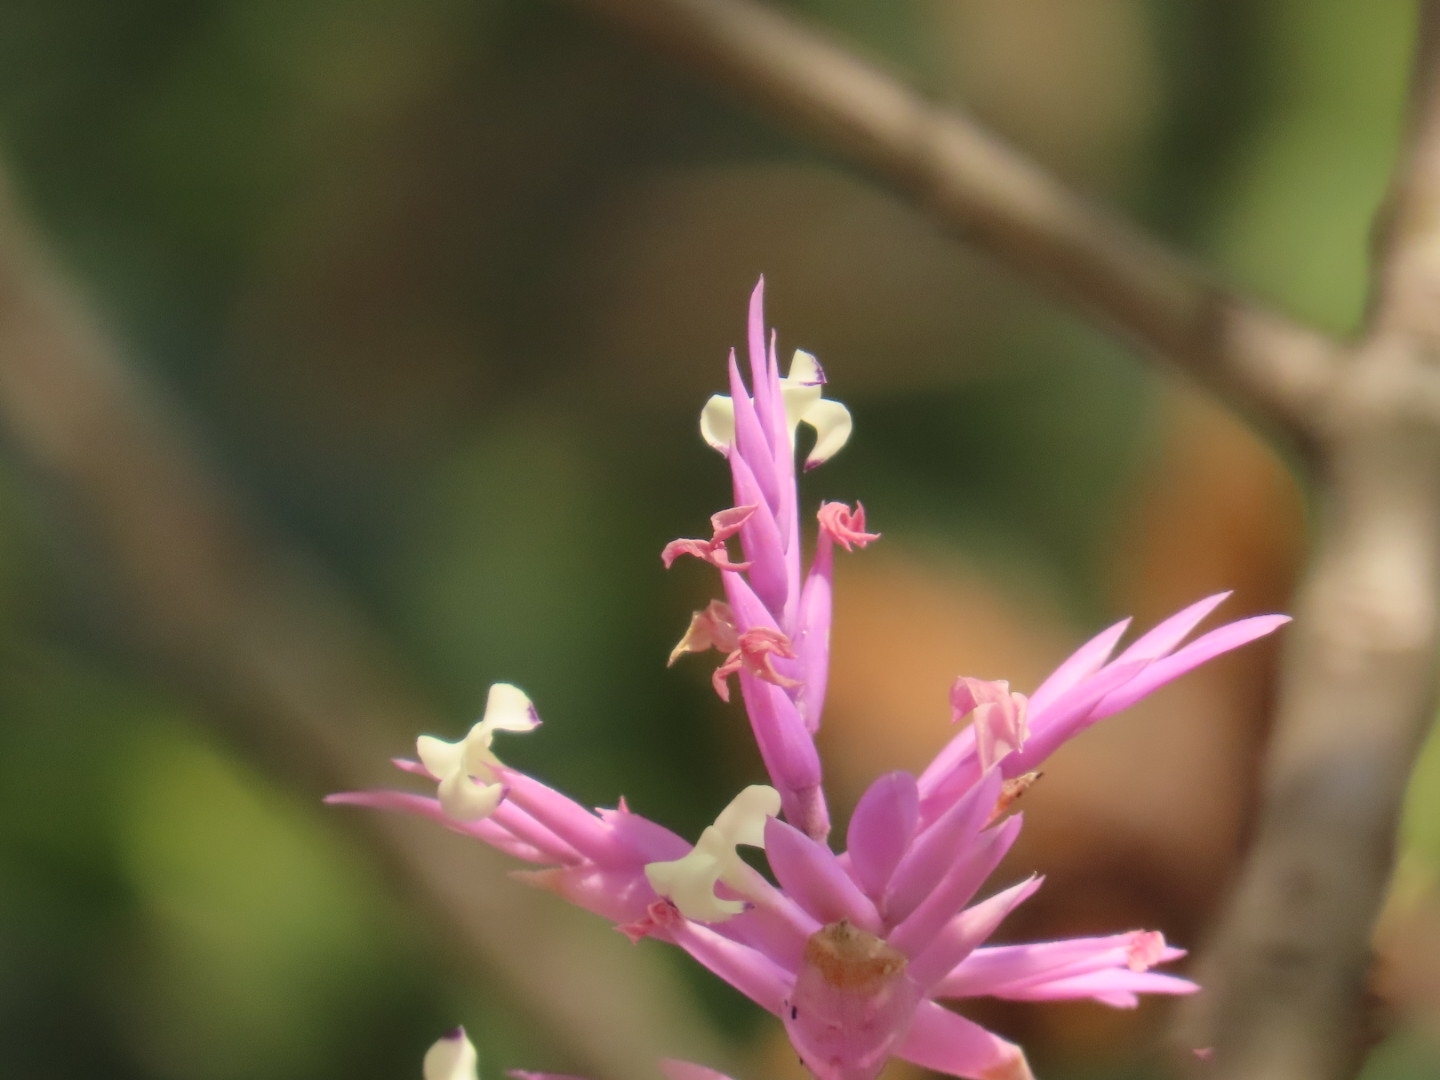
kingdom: Plantae
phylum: Tracheophyta
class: Liliopsida
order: Poales
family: Bromeliaceae
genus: Tillandsia
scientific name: Tillandsia straminea
